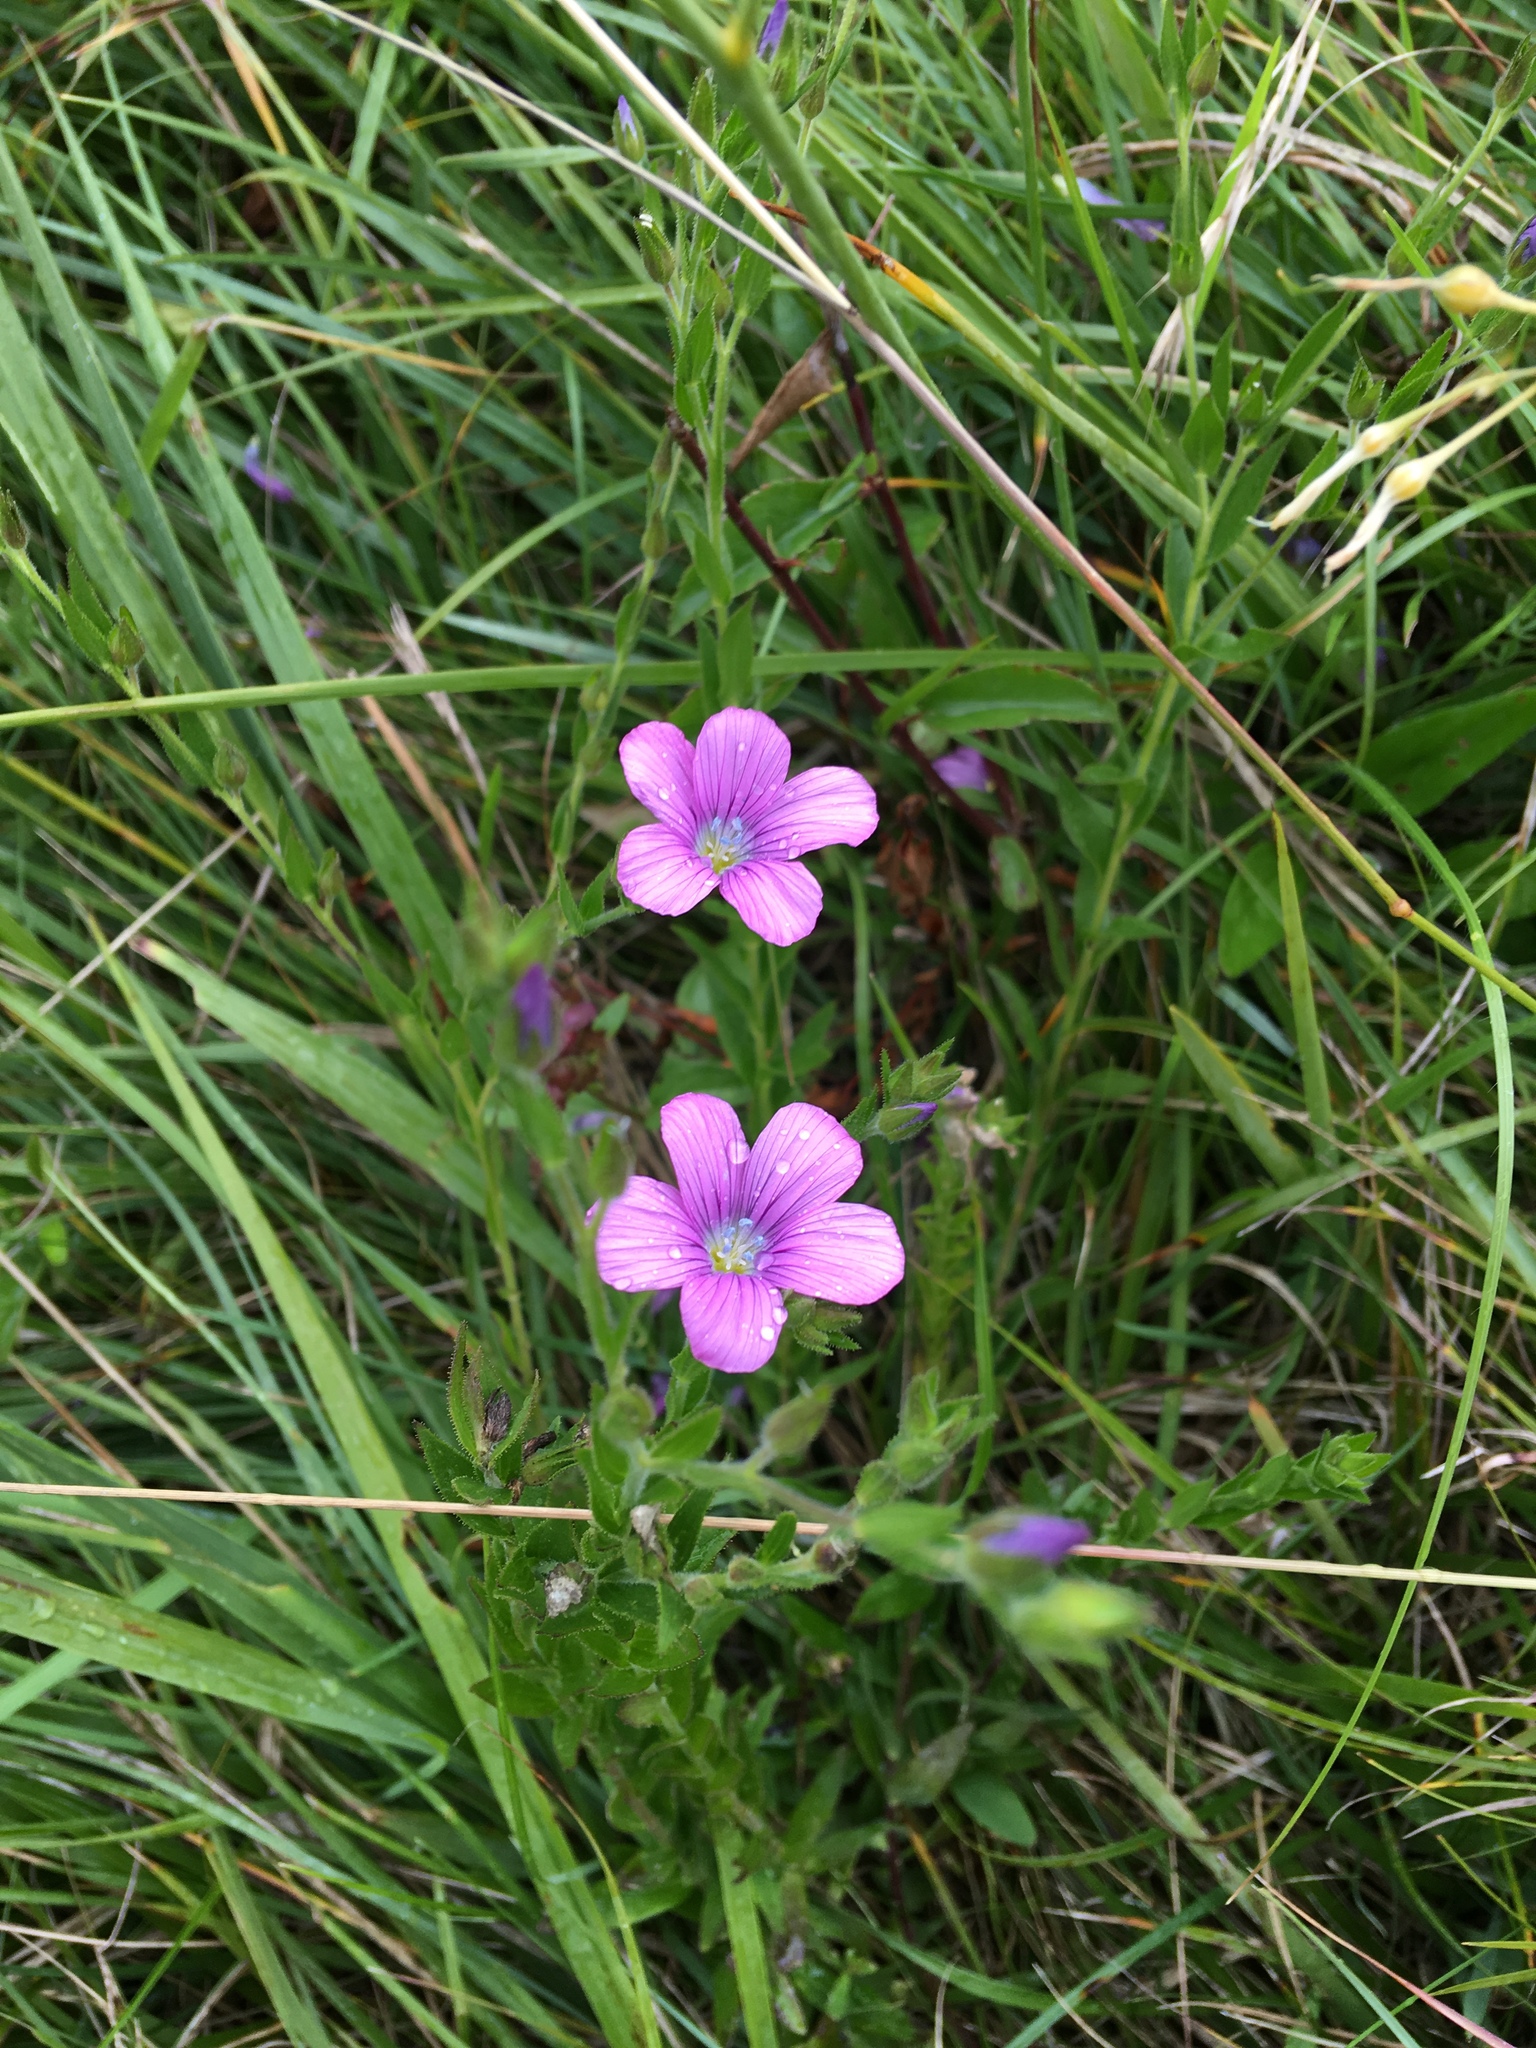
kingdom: Plantae
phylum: Tracheophyta
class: Magnoliopsida
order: Malpighiales
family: Linaceae
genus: Linum
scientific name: Linum viscosum
